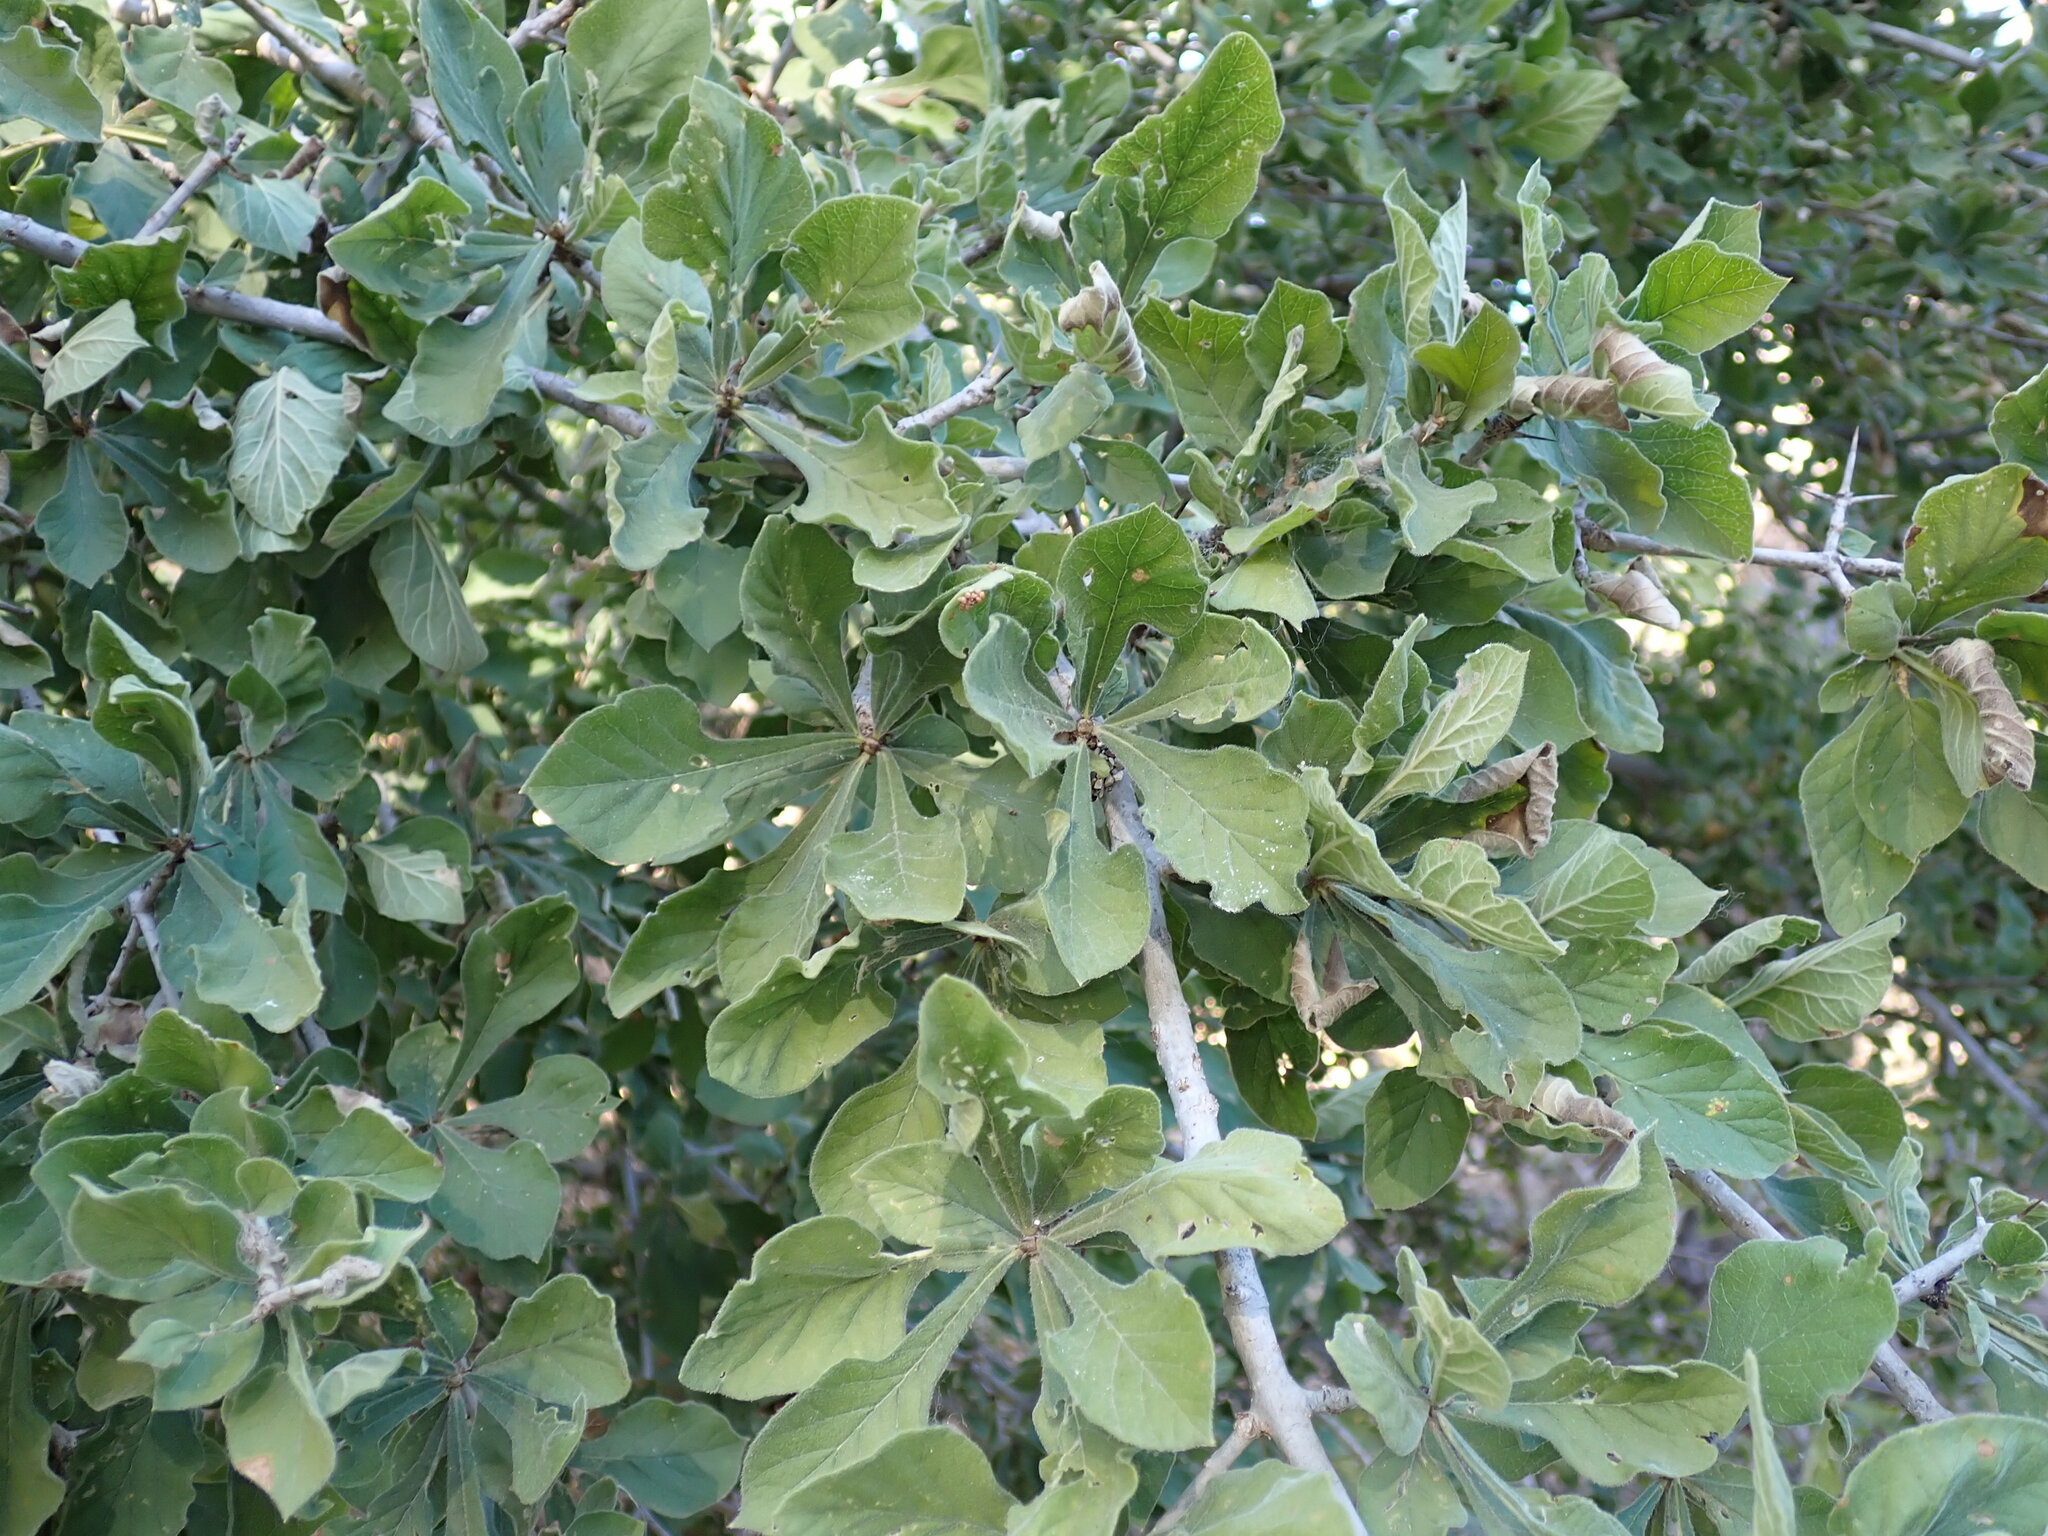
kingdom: Plantae
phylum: Tracheophyta
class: Magnoliopsida
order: Gentianales
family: Rubiaceae
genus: Randia
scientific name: Randia echinocarpa
